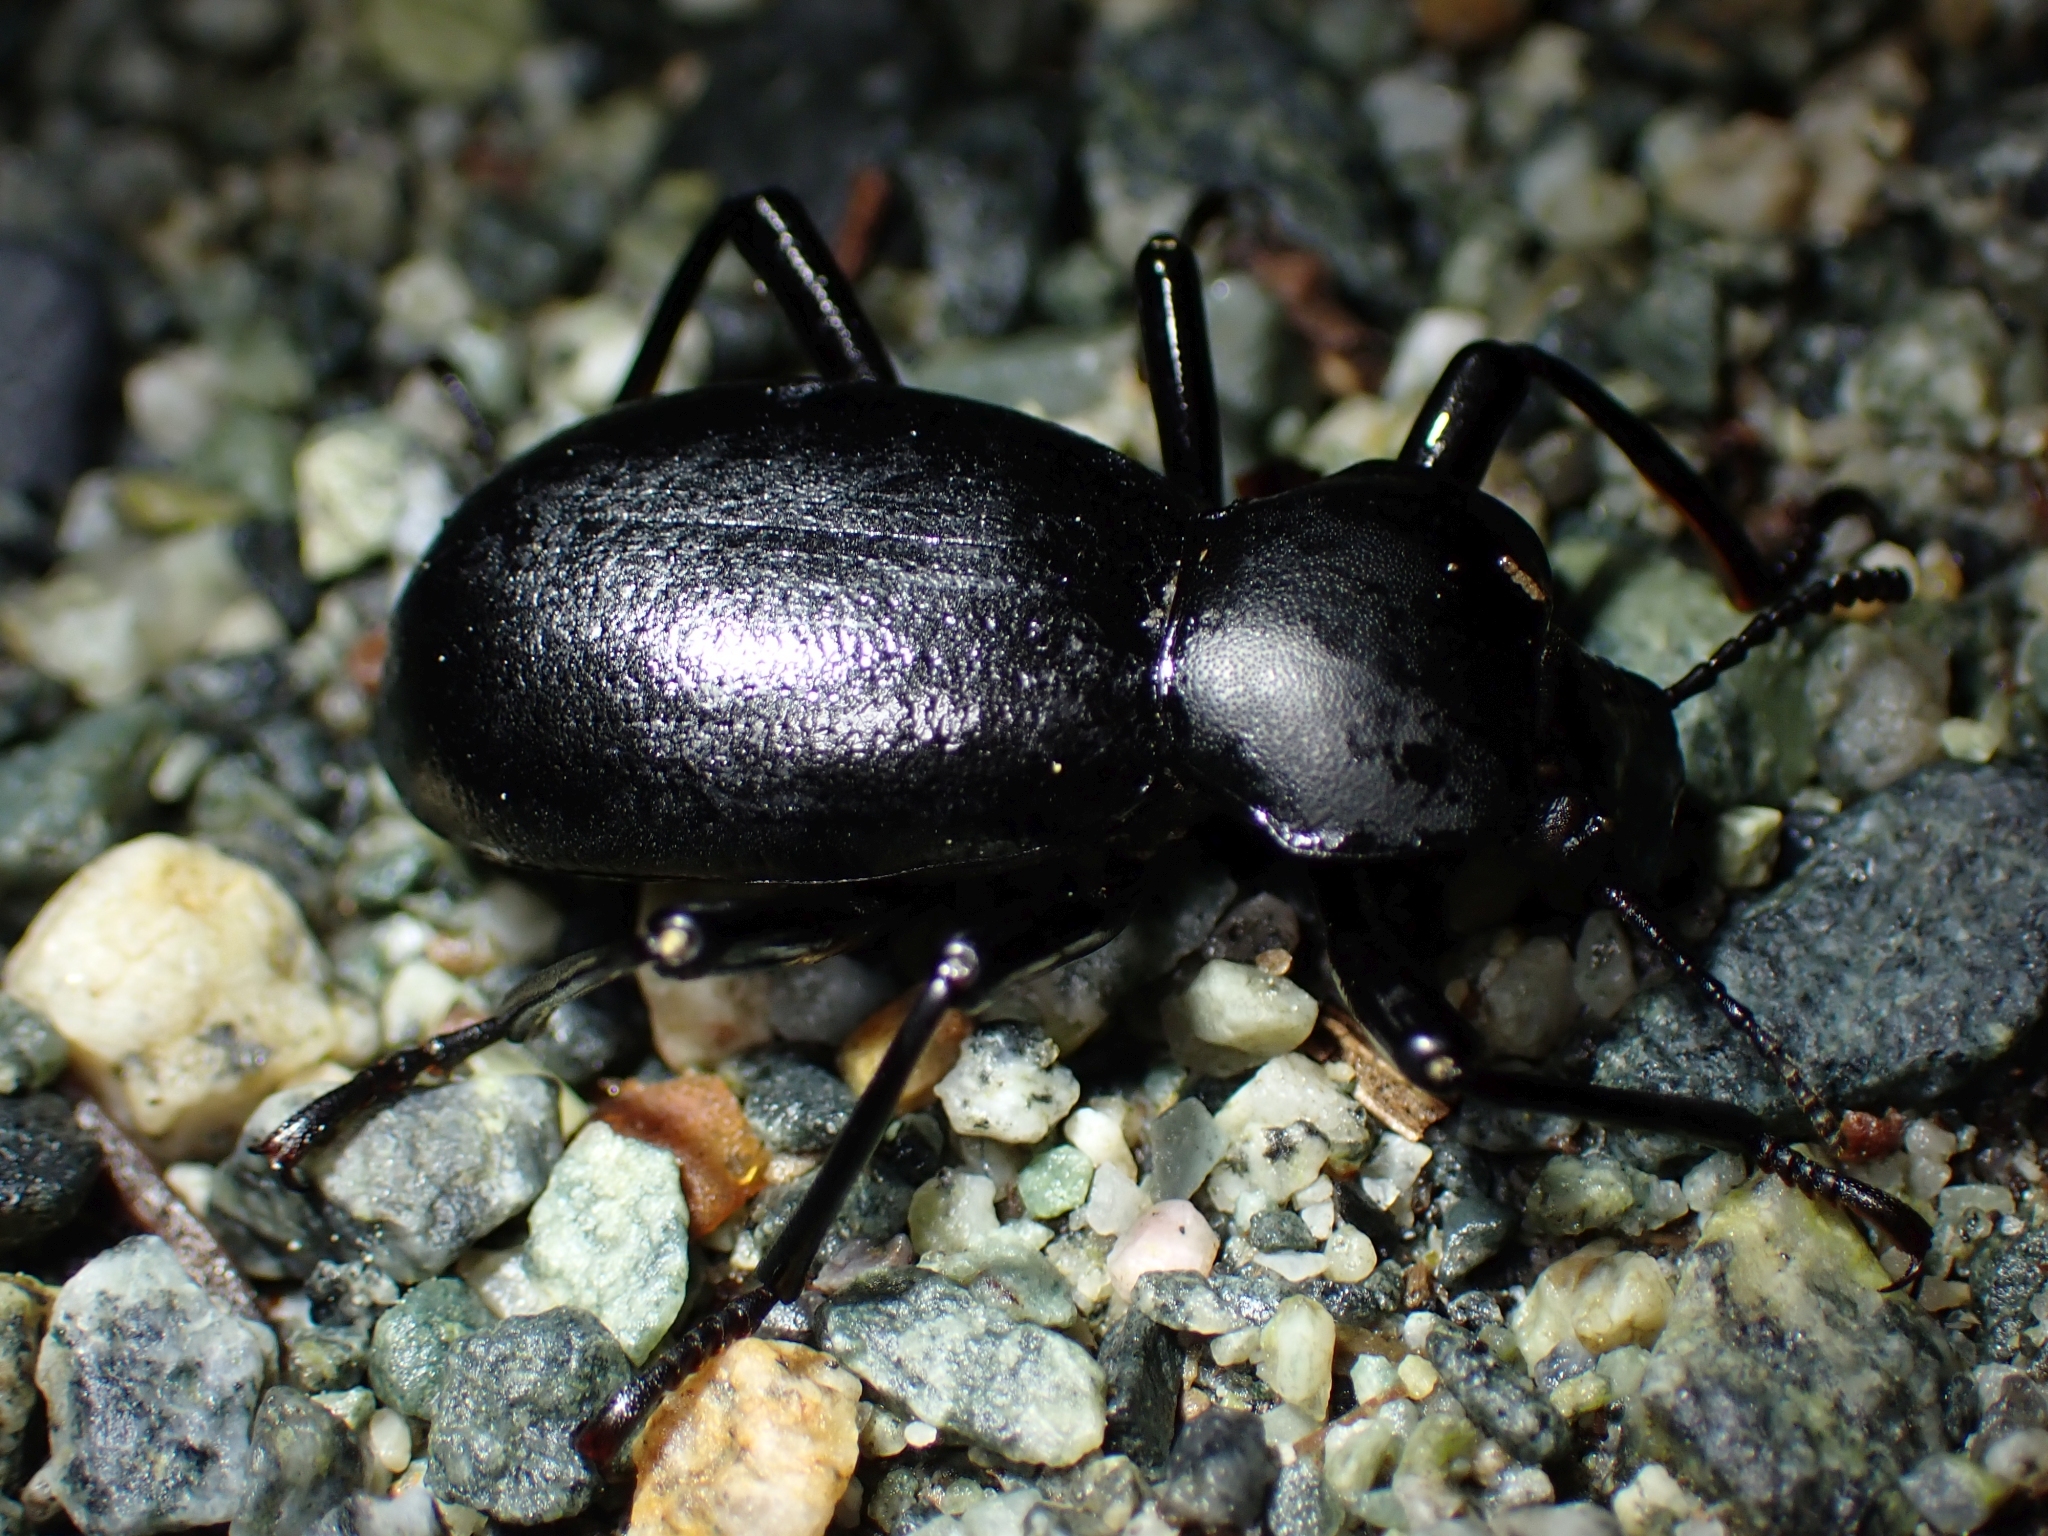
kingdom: Animalia
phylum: Arthropoda
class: Insecta
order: Coleoptera
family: Tenebrionidae
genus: Coelocnemis
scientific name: Coelocnemis dilaticollis
